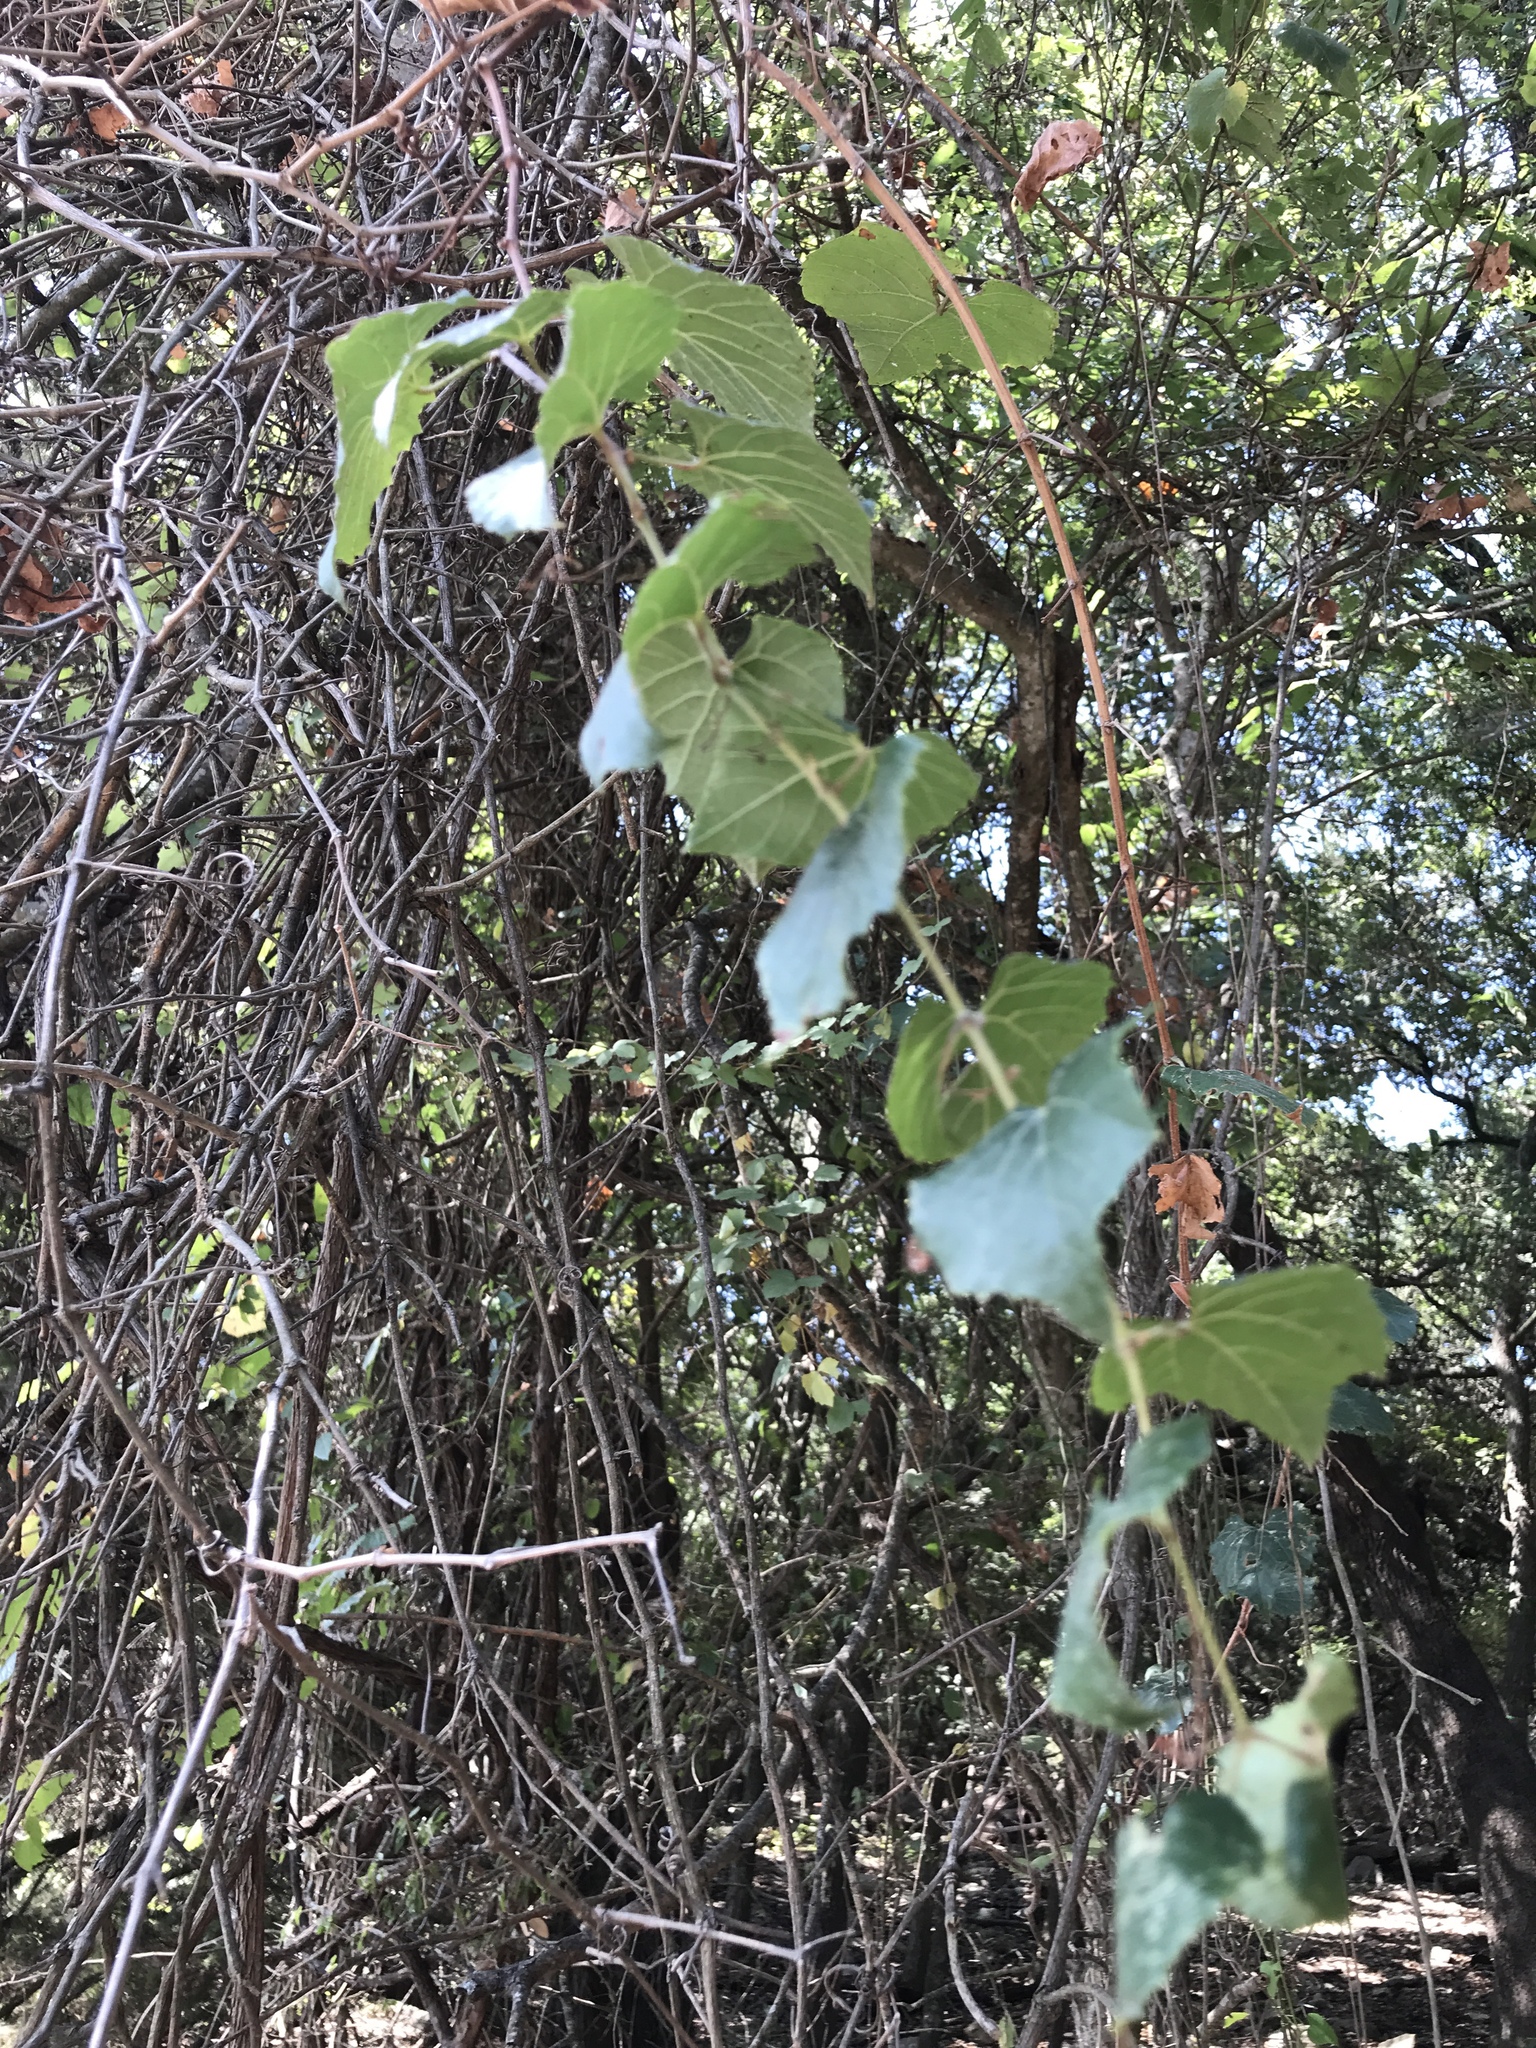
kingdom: Plantae
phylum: Tracheophyta
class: Magnoliopsida
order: Vitales
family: Vitaceae
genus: Vitis
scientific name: Vitis mustangensis
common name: Mustang grape
